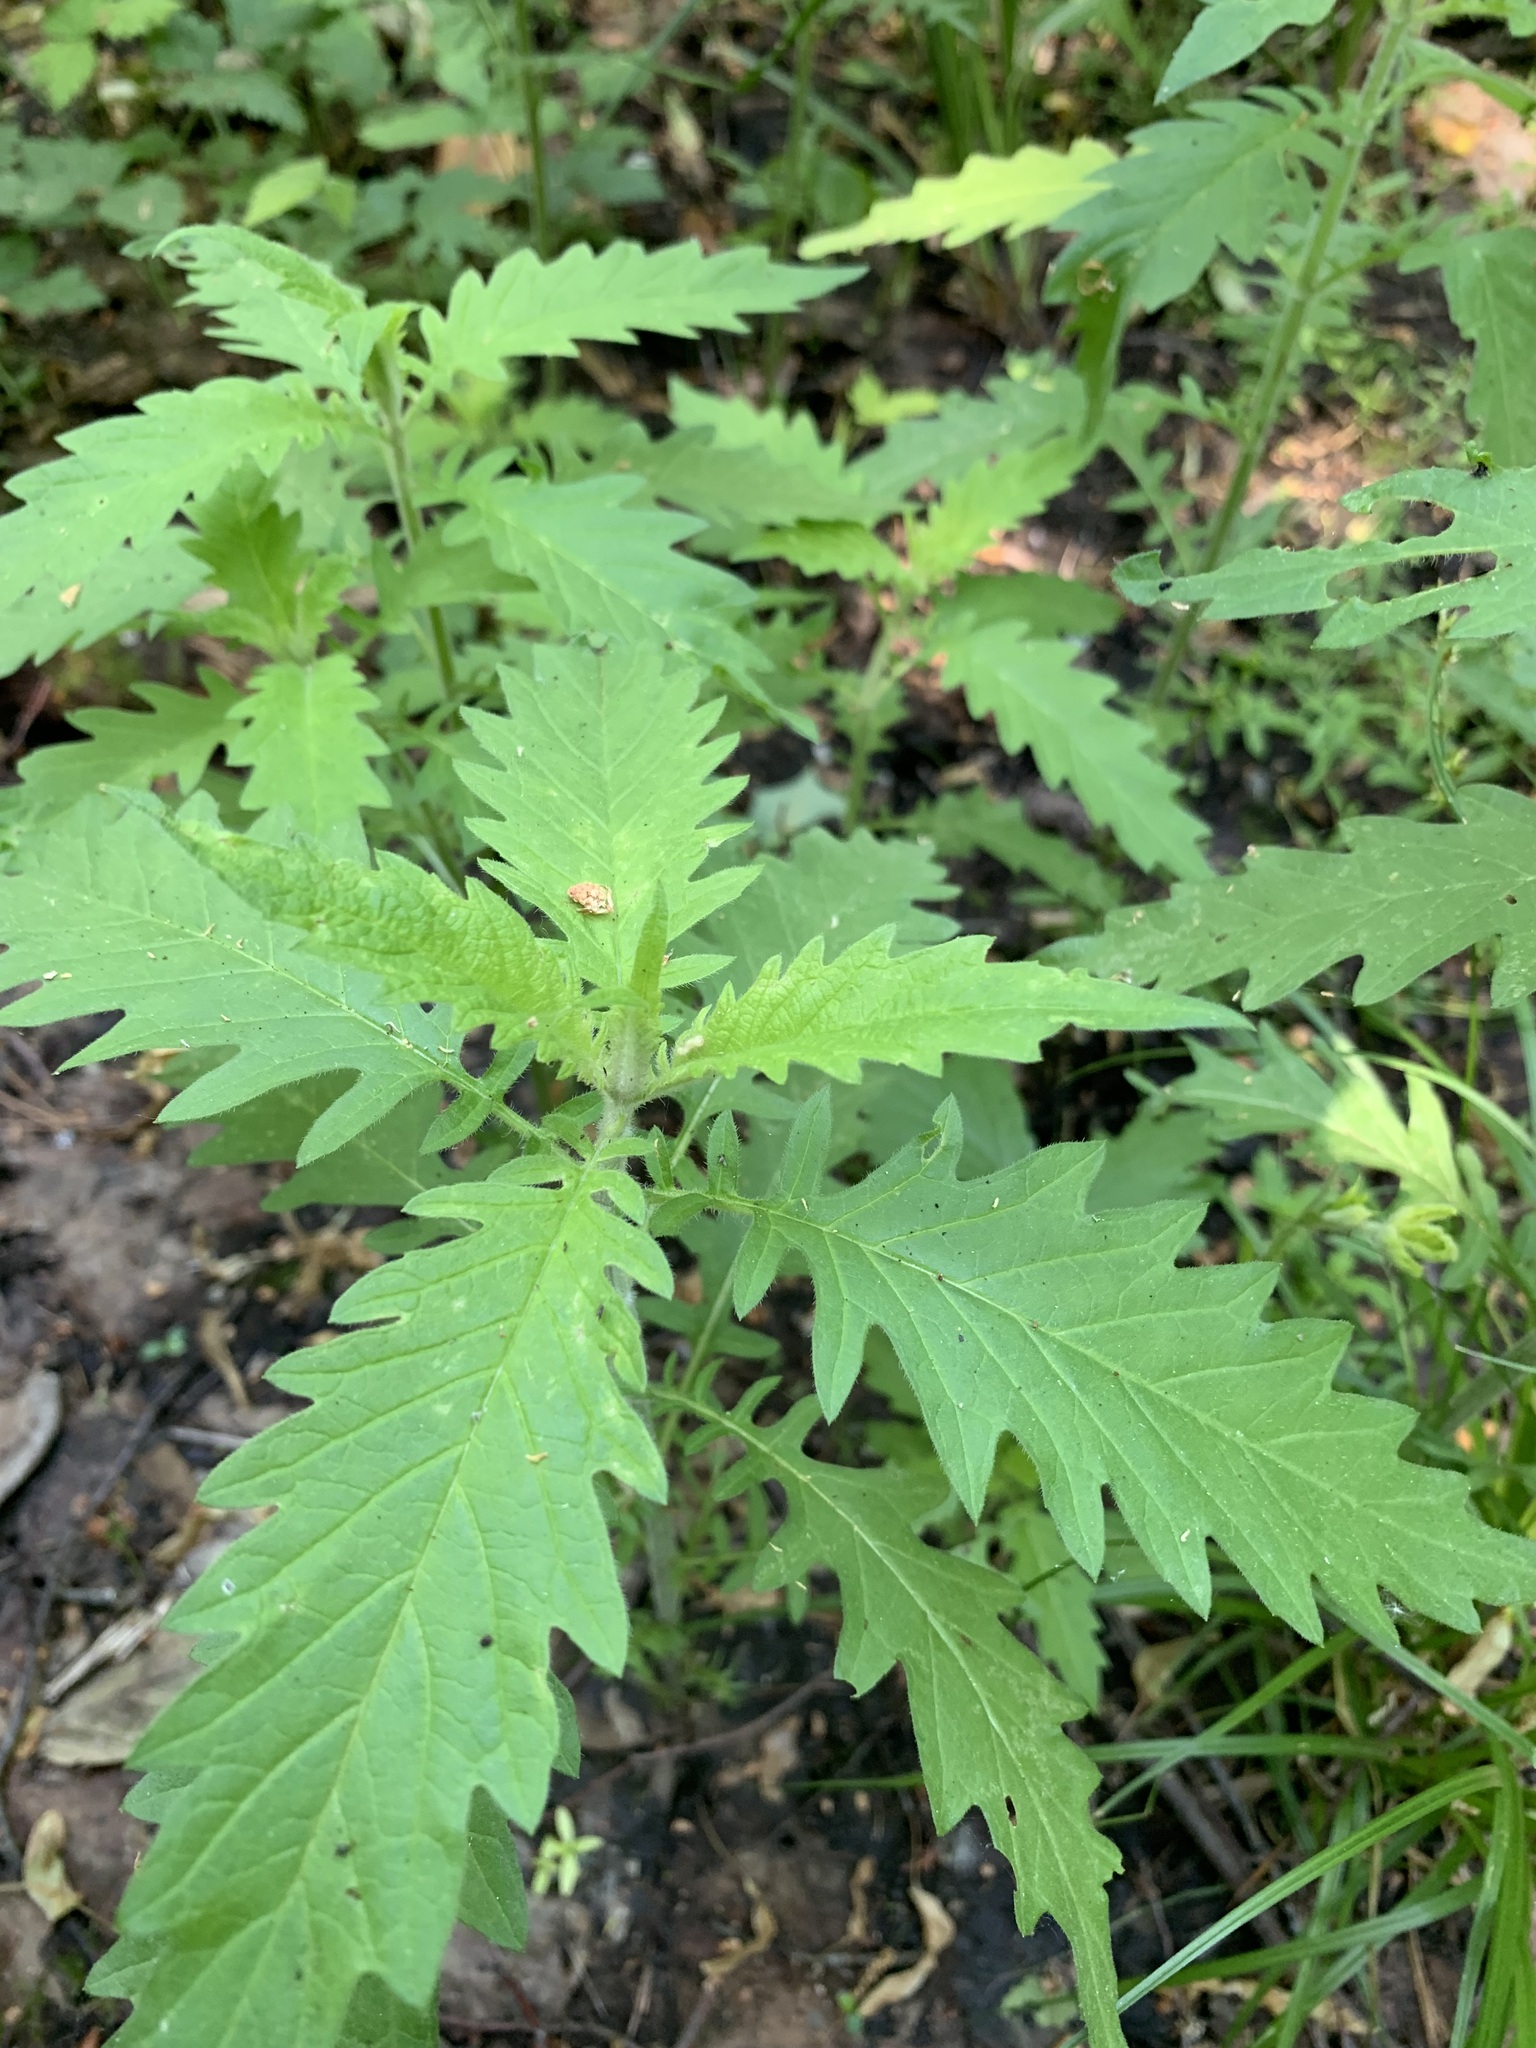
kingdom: Plantae
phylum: Tracheophyta
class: Magnoliopsida
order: Lamiales
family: Lamiaceae
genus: Lycopus
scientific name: Lycopus europaeus
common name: European bugleweed
